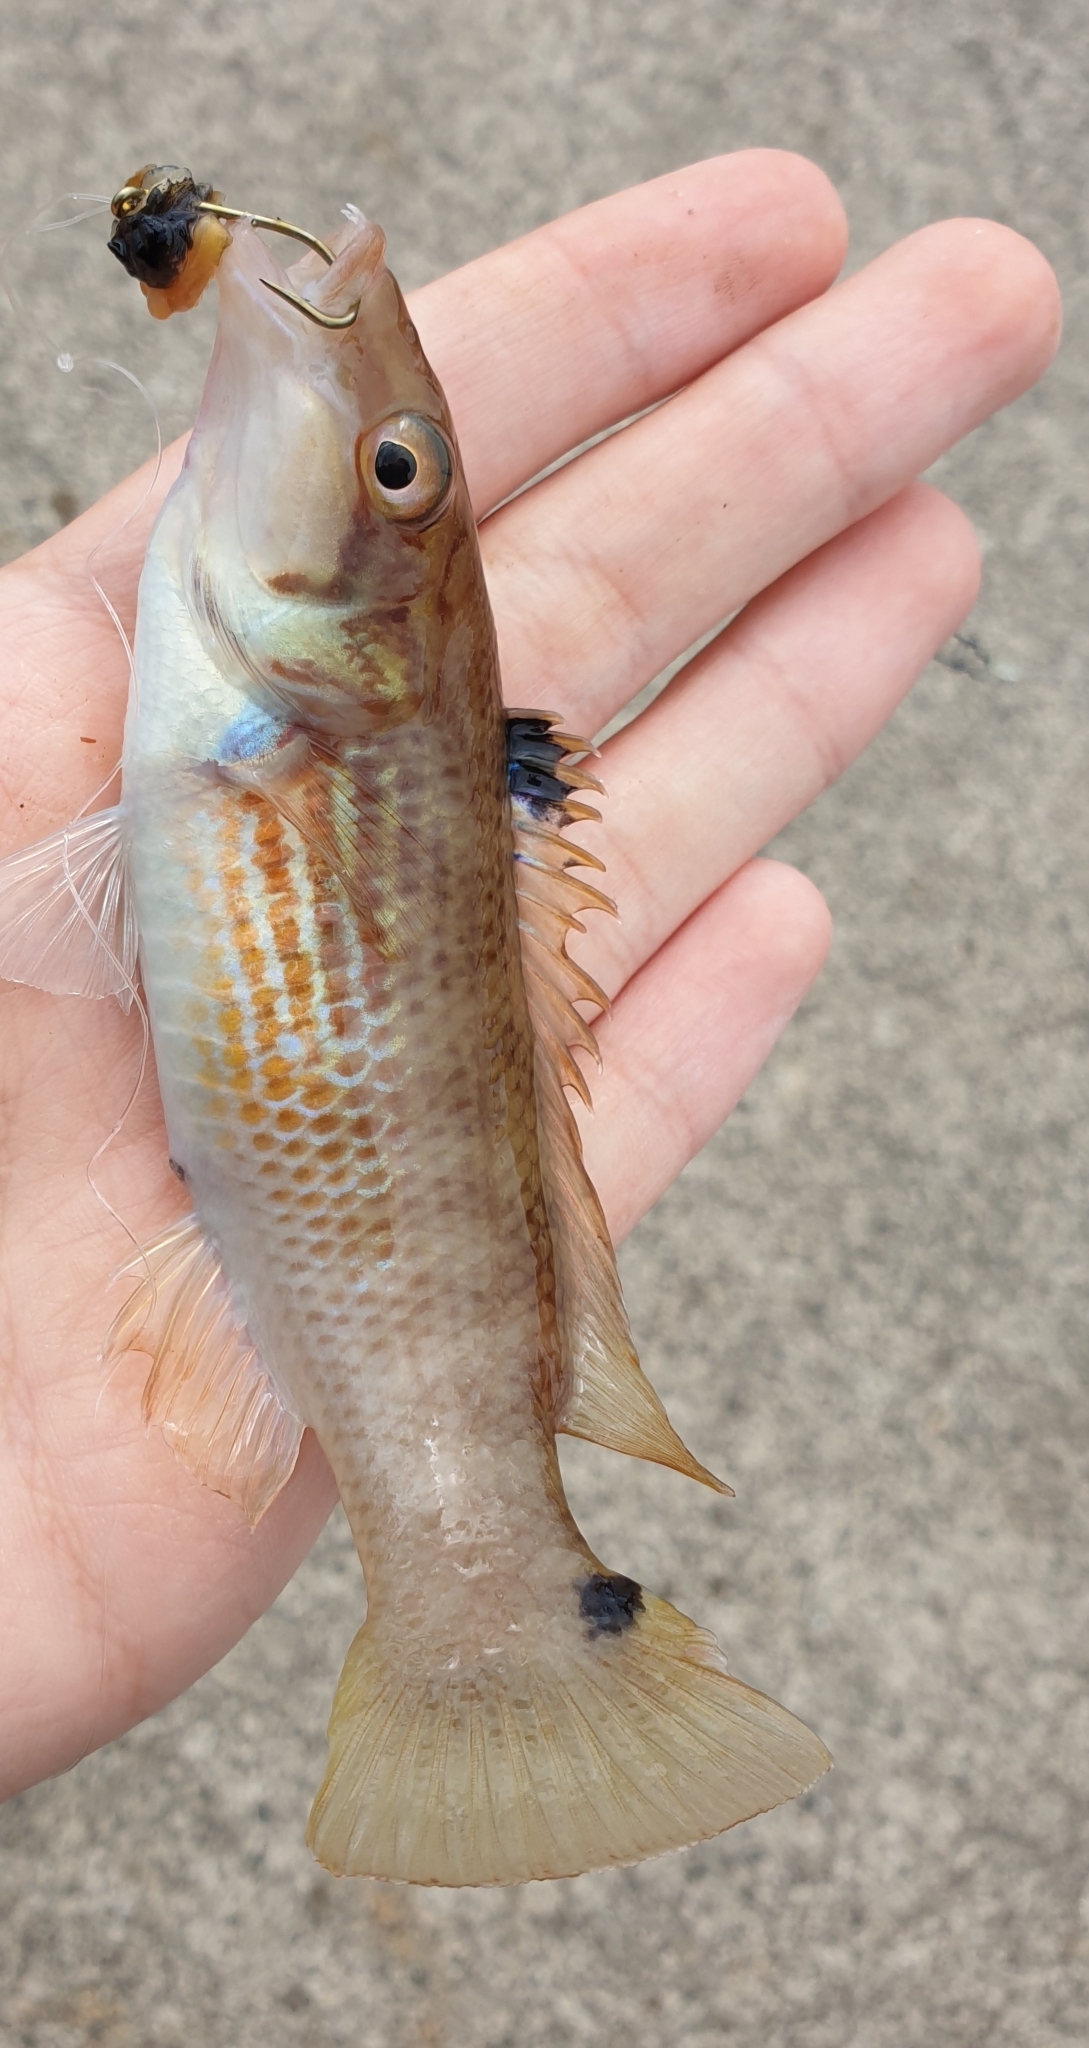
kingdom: Animalia
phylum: Chordata
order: Perciformes
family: Labridae
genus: Ctenolabrus
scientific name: Ctenolabrus rupestris
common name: Goldsinny
